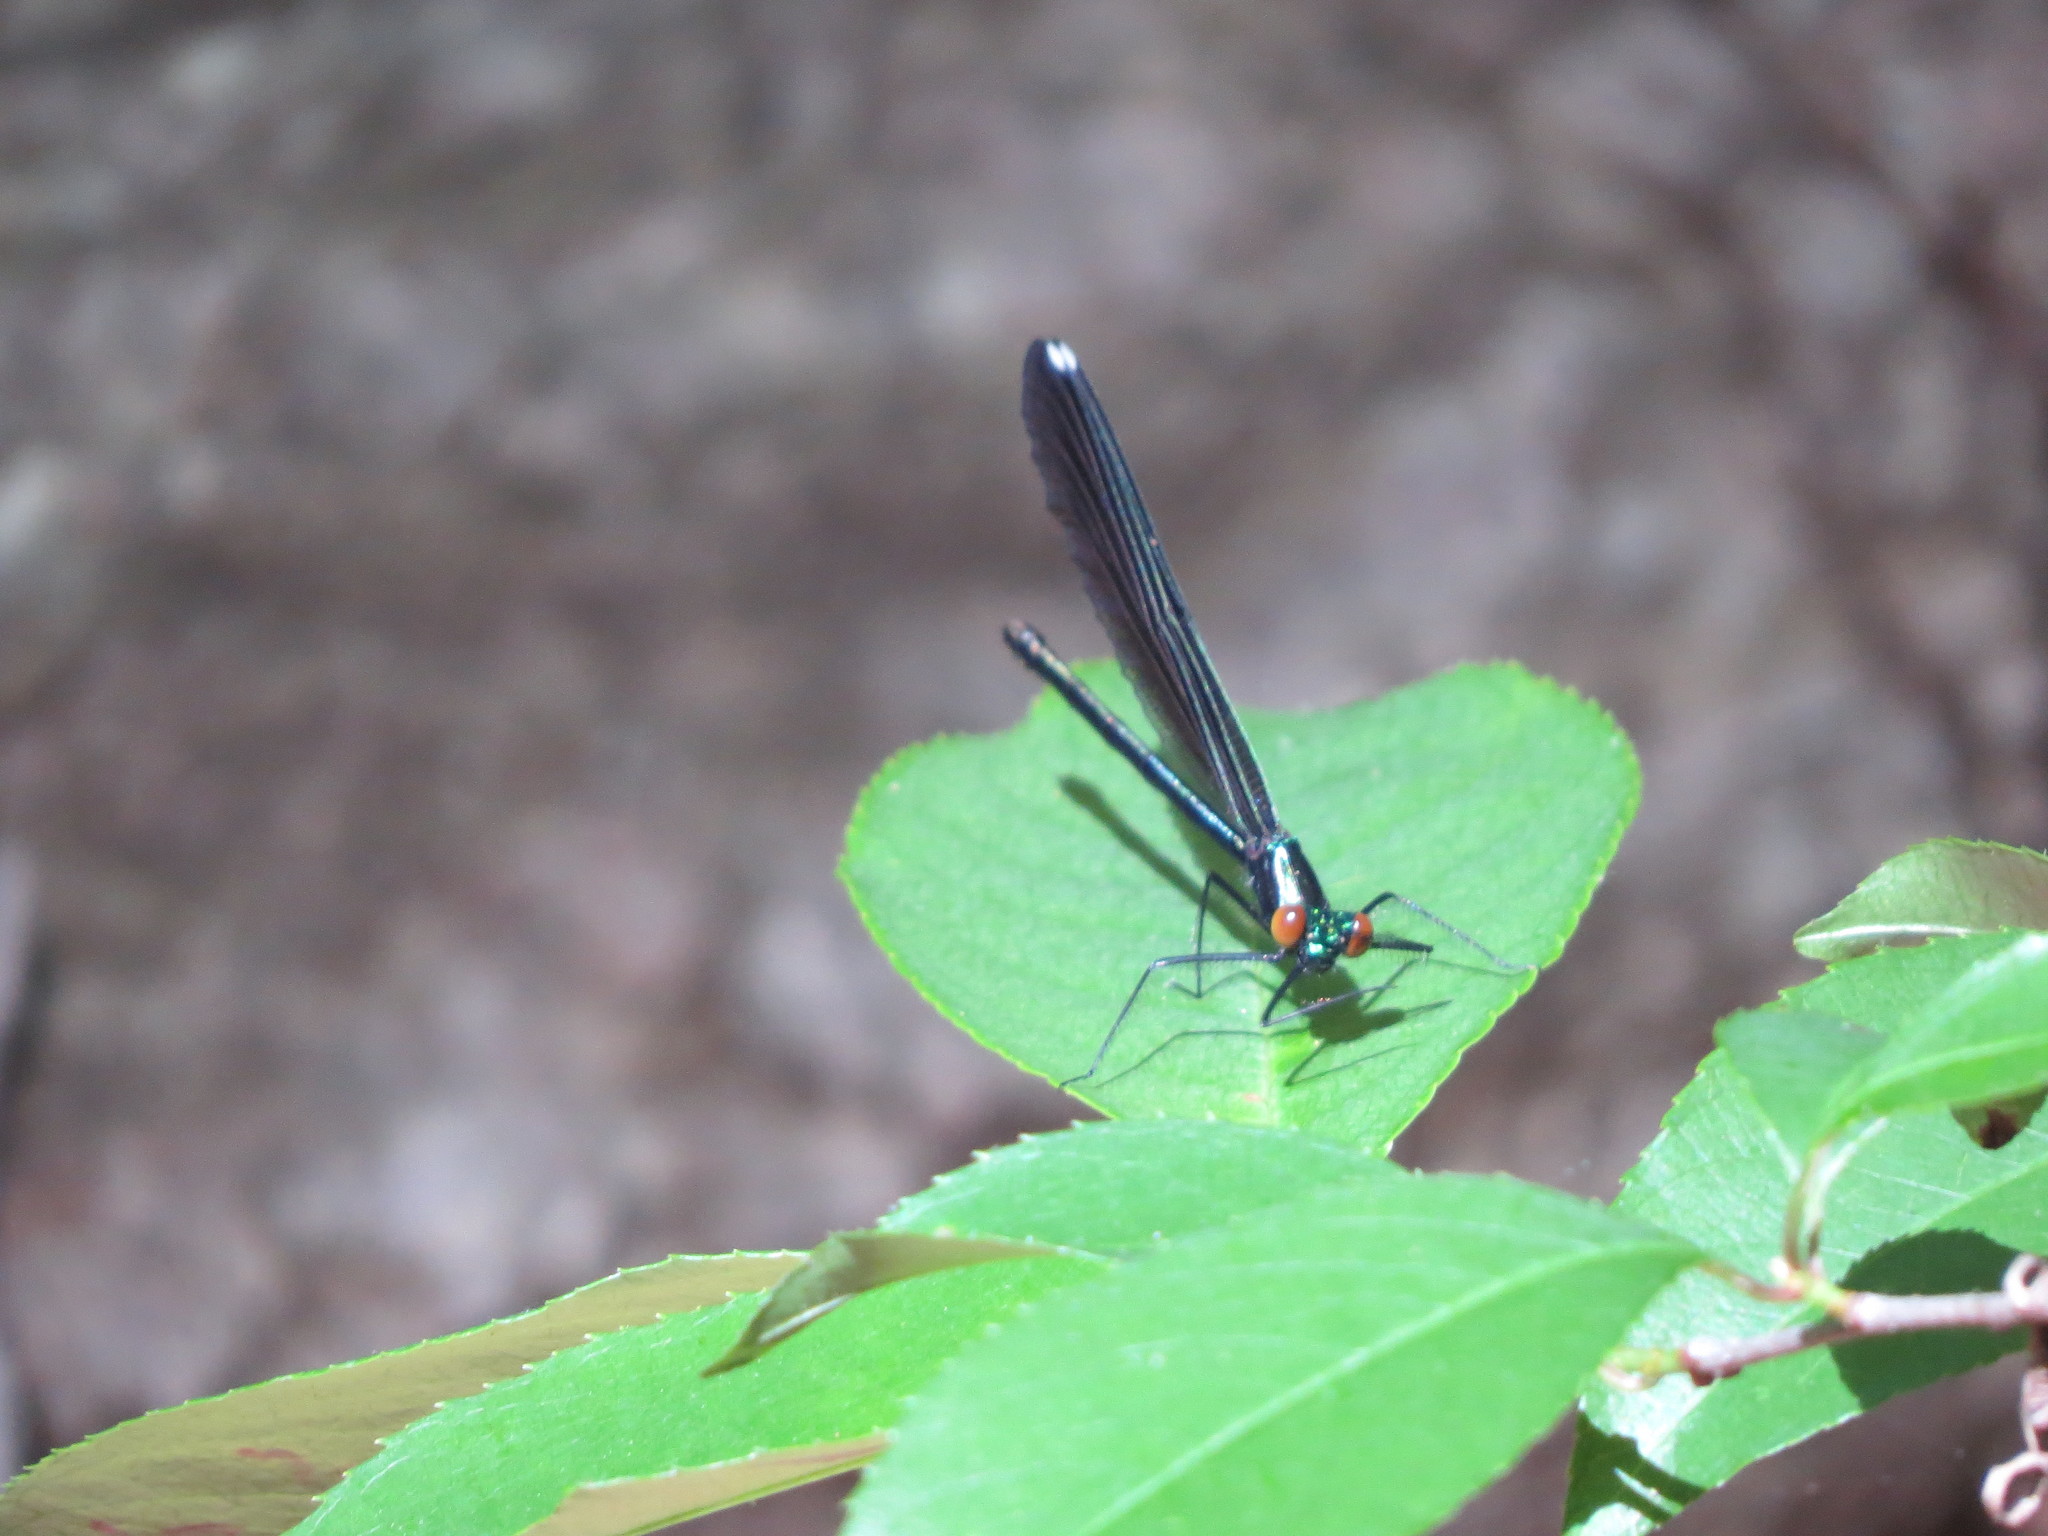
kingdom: Animalia
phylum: Arthropoda
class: Insecta
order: Odonata
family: Calopterygidae
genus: Calopteryx
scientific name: Calopteryx maculata
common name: Ebony jewelwing
